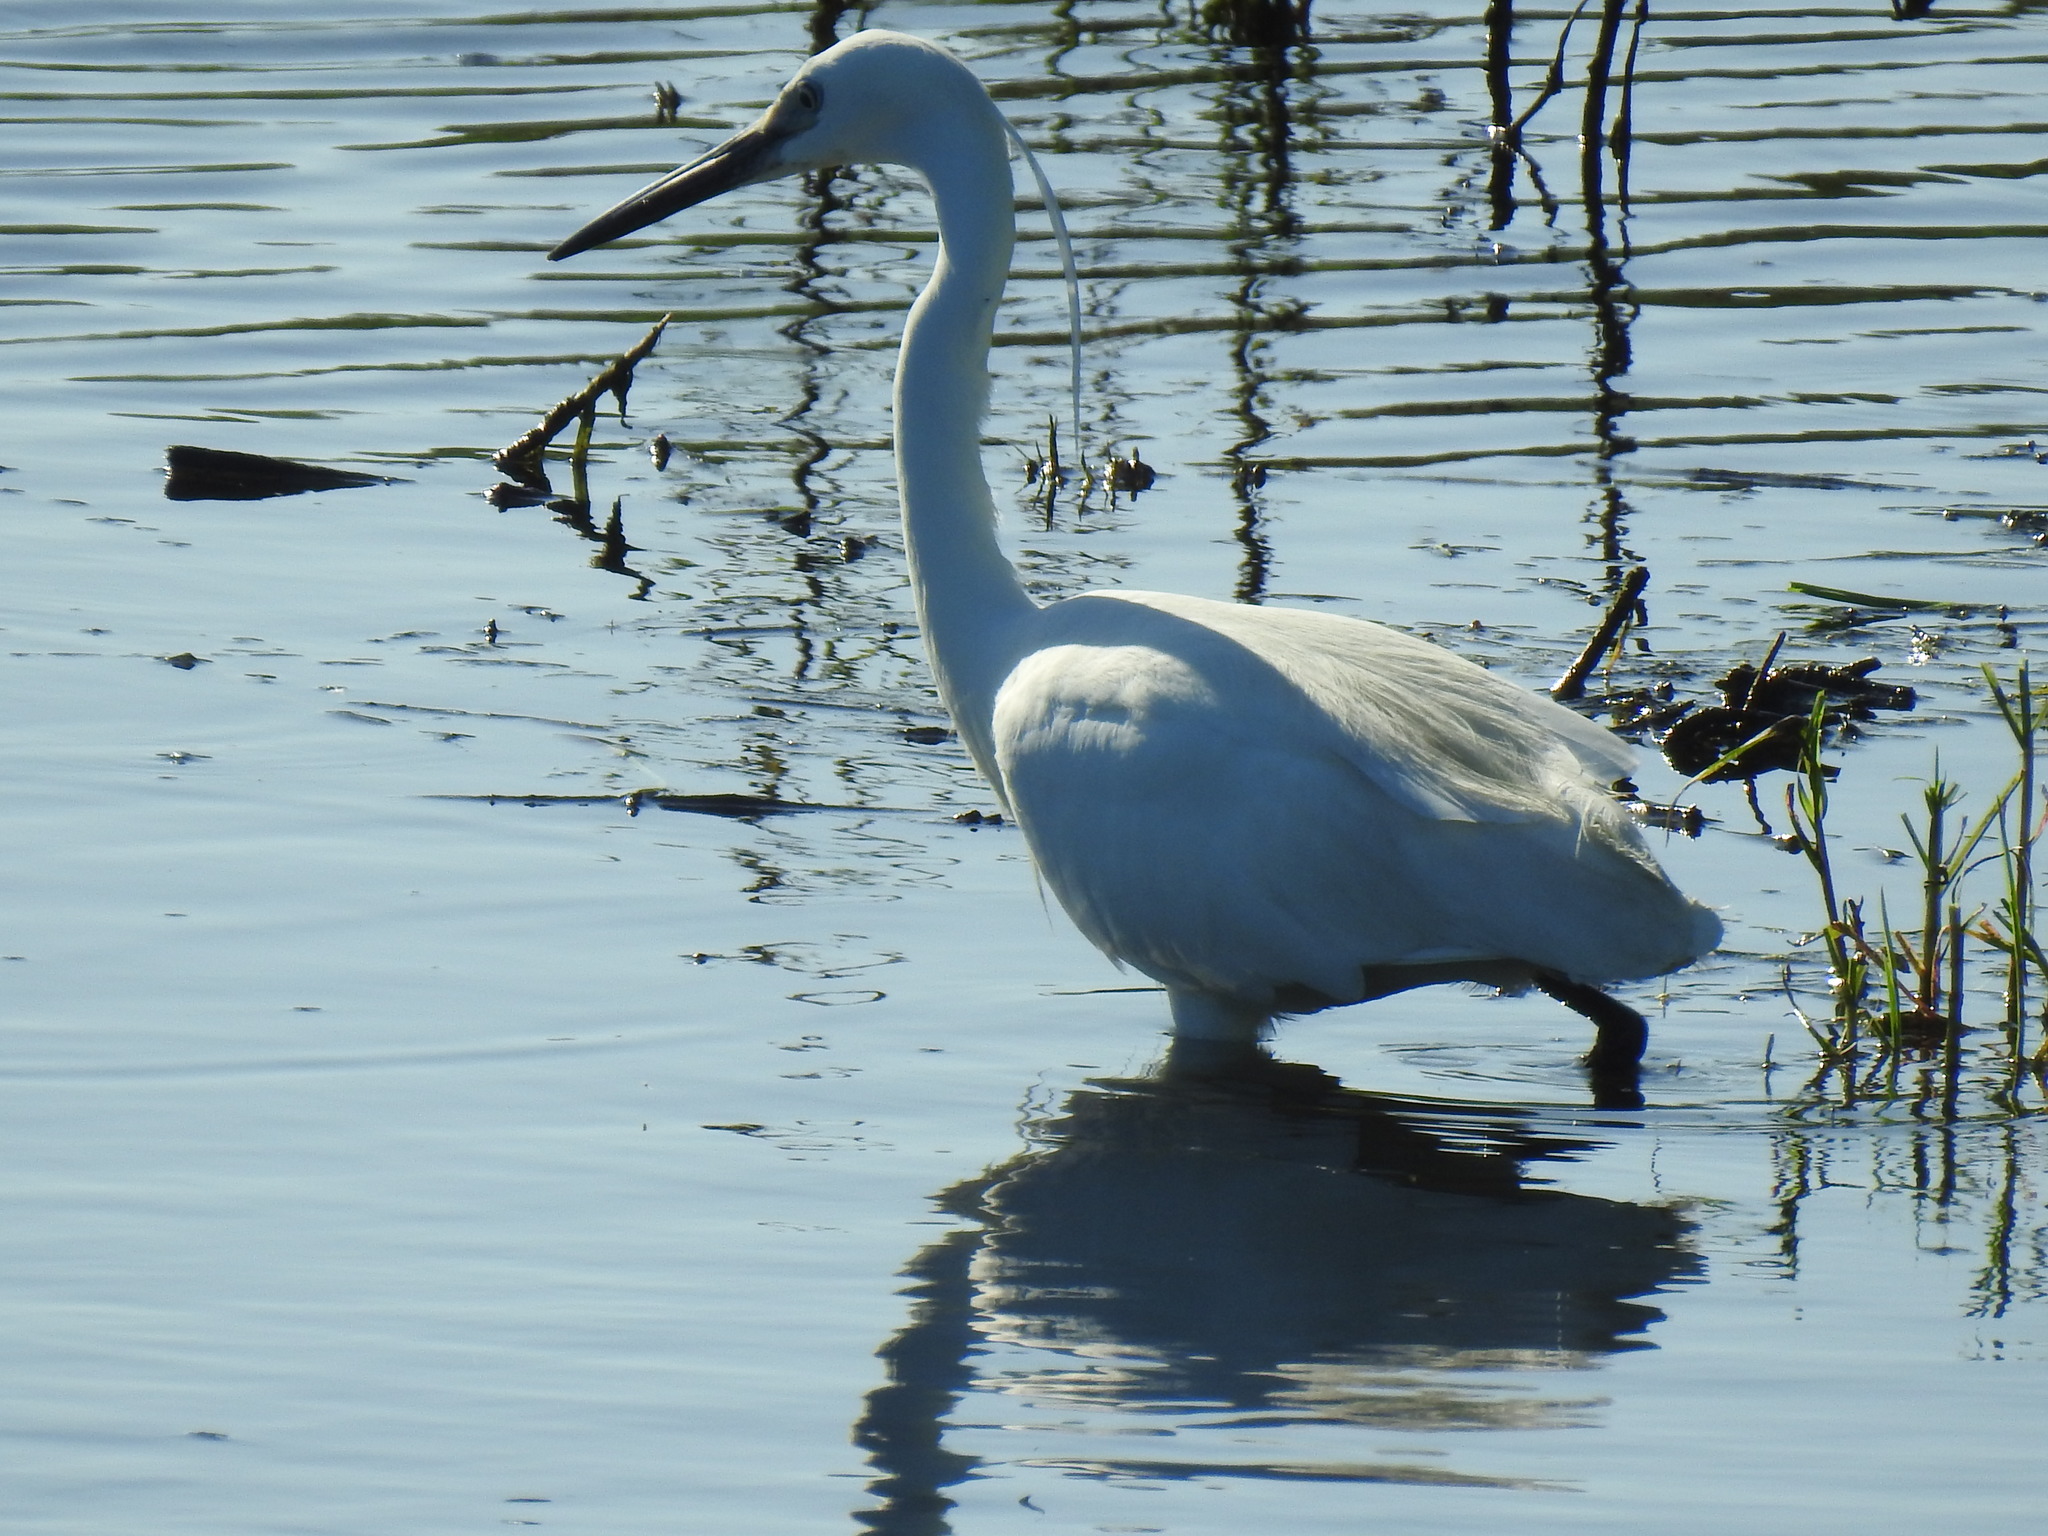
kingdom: Animalia
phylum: Chordata
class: Aves
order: Pelecaniformes
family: Ardeidae
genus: Egretta
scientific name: Egretta garzetta
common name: Little egret
